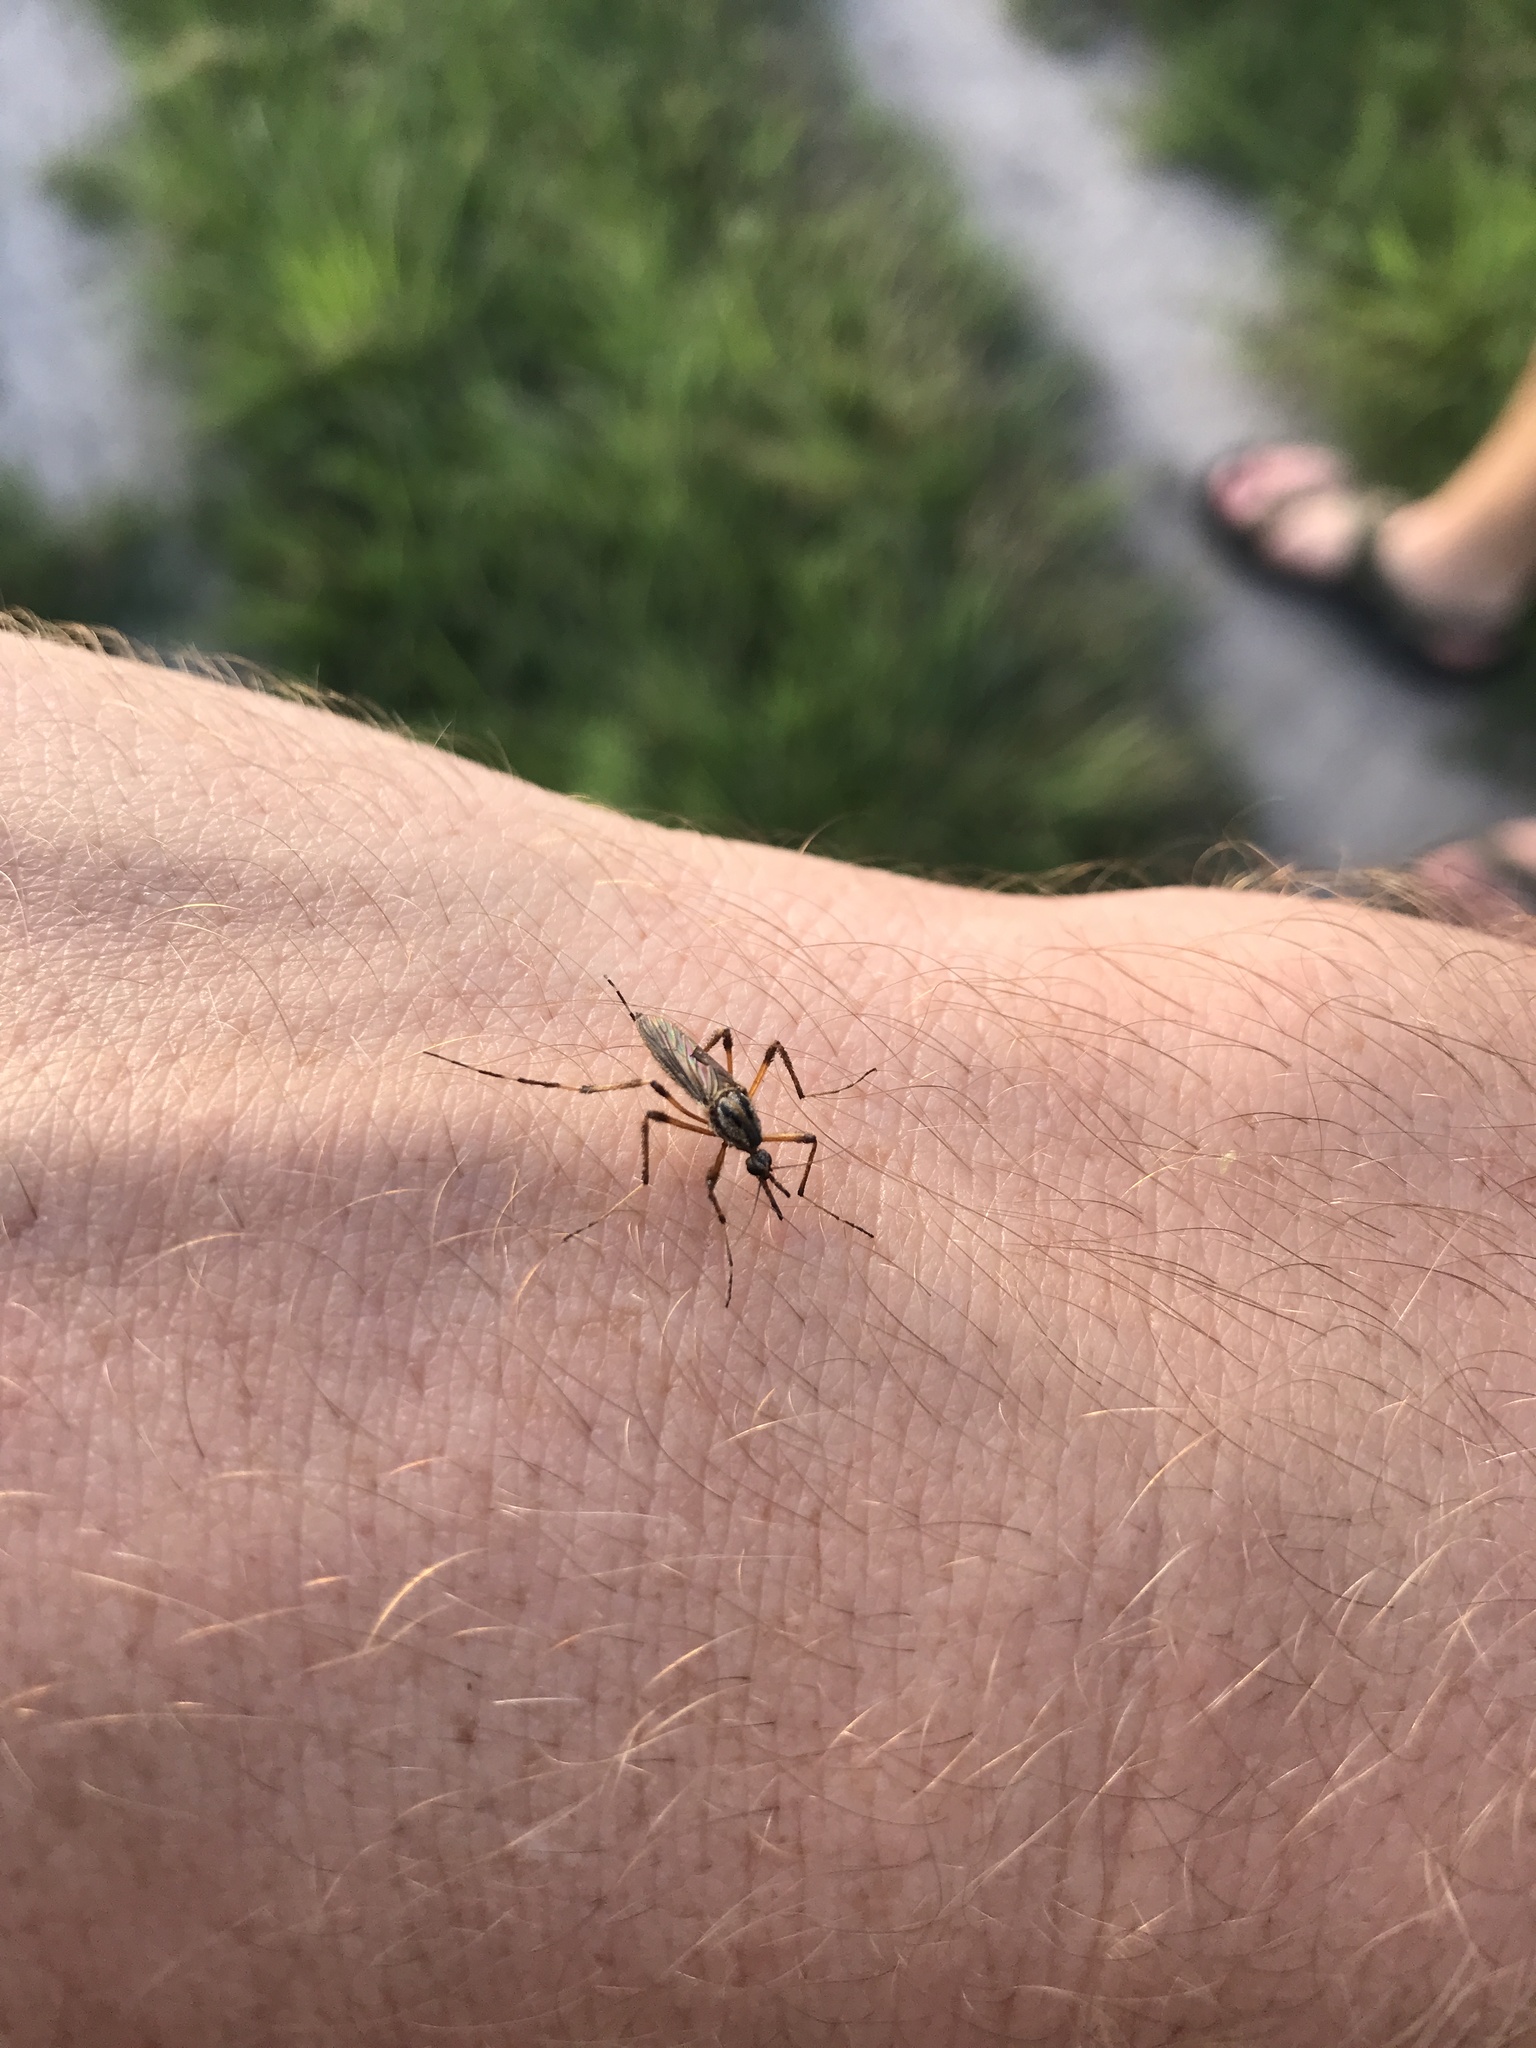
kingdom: Animalia
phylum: Arthropoda
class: Insecta
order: Diptera
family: Culicidae
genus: Psorophora
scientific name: Psorophora ciliata
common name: Gallinipper
